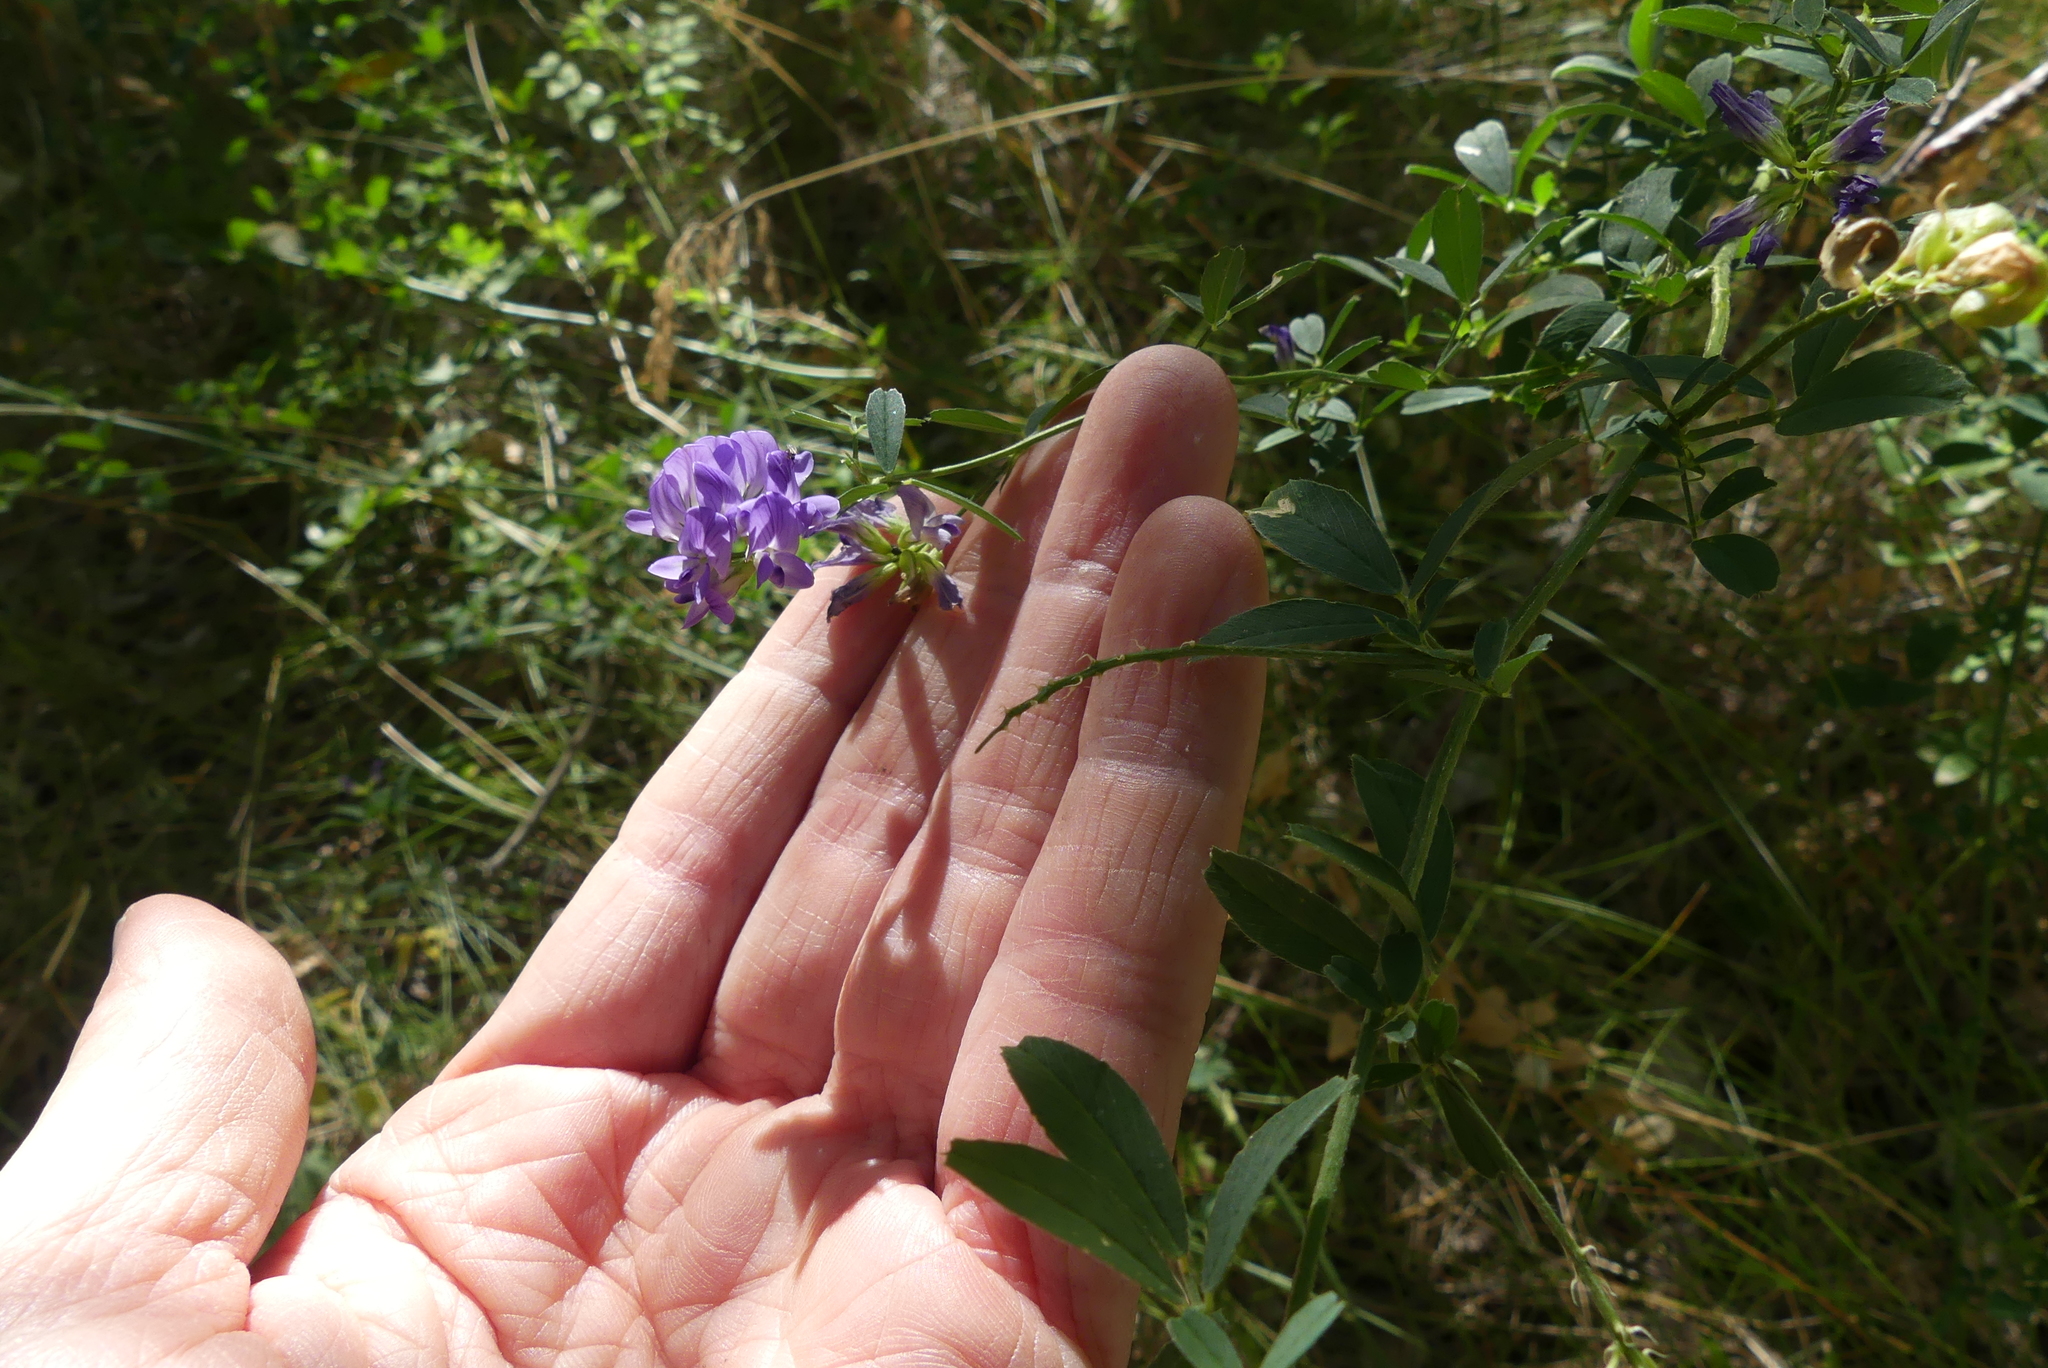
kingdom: Plantae
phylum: Tracheophyta
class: Magnoliopsida
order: Fabales
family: Fabaceae
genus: Medicago
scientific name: Medicago sativa
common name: Alfalfa
